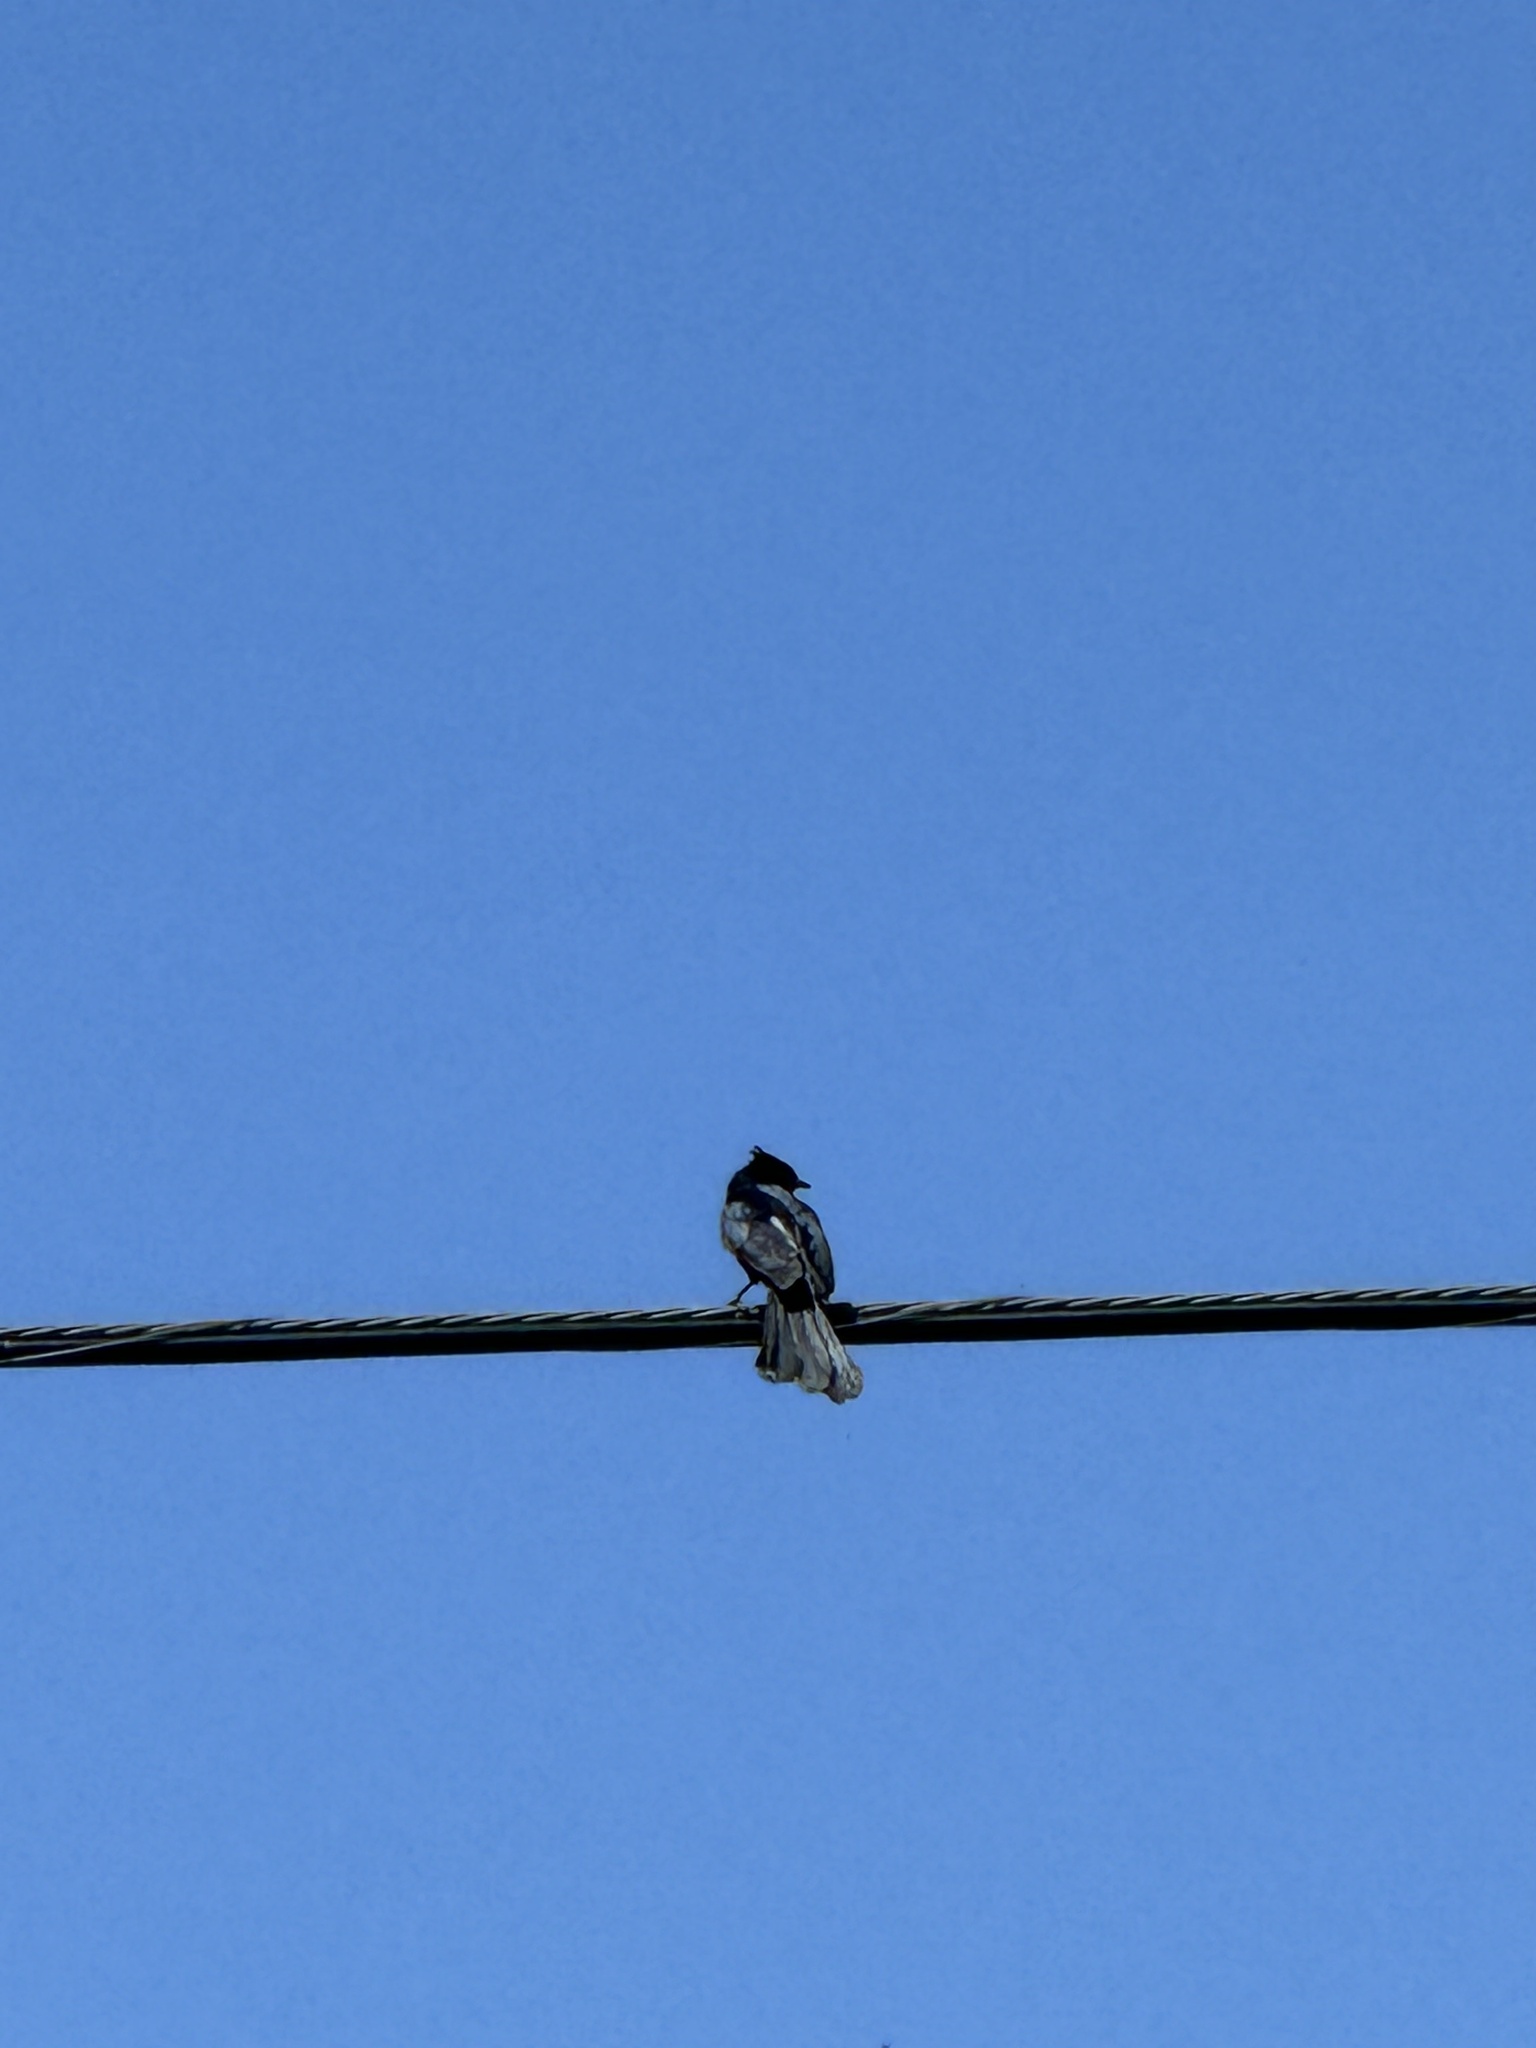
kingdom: Animalia
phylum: Chordata
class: Aves
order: Passeriformes
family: Ptilogonatidae
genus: Phainopepla
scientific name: Phainopepla nitens
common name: Phainopepla
